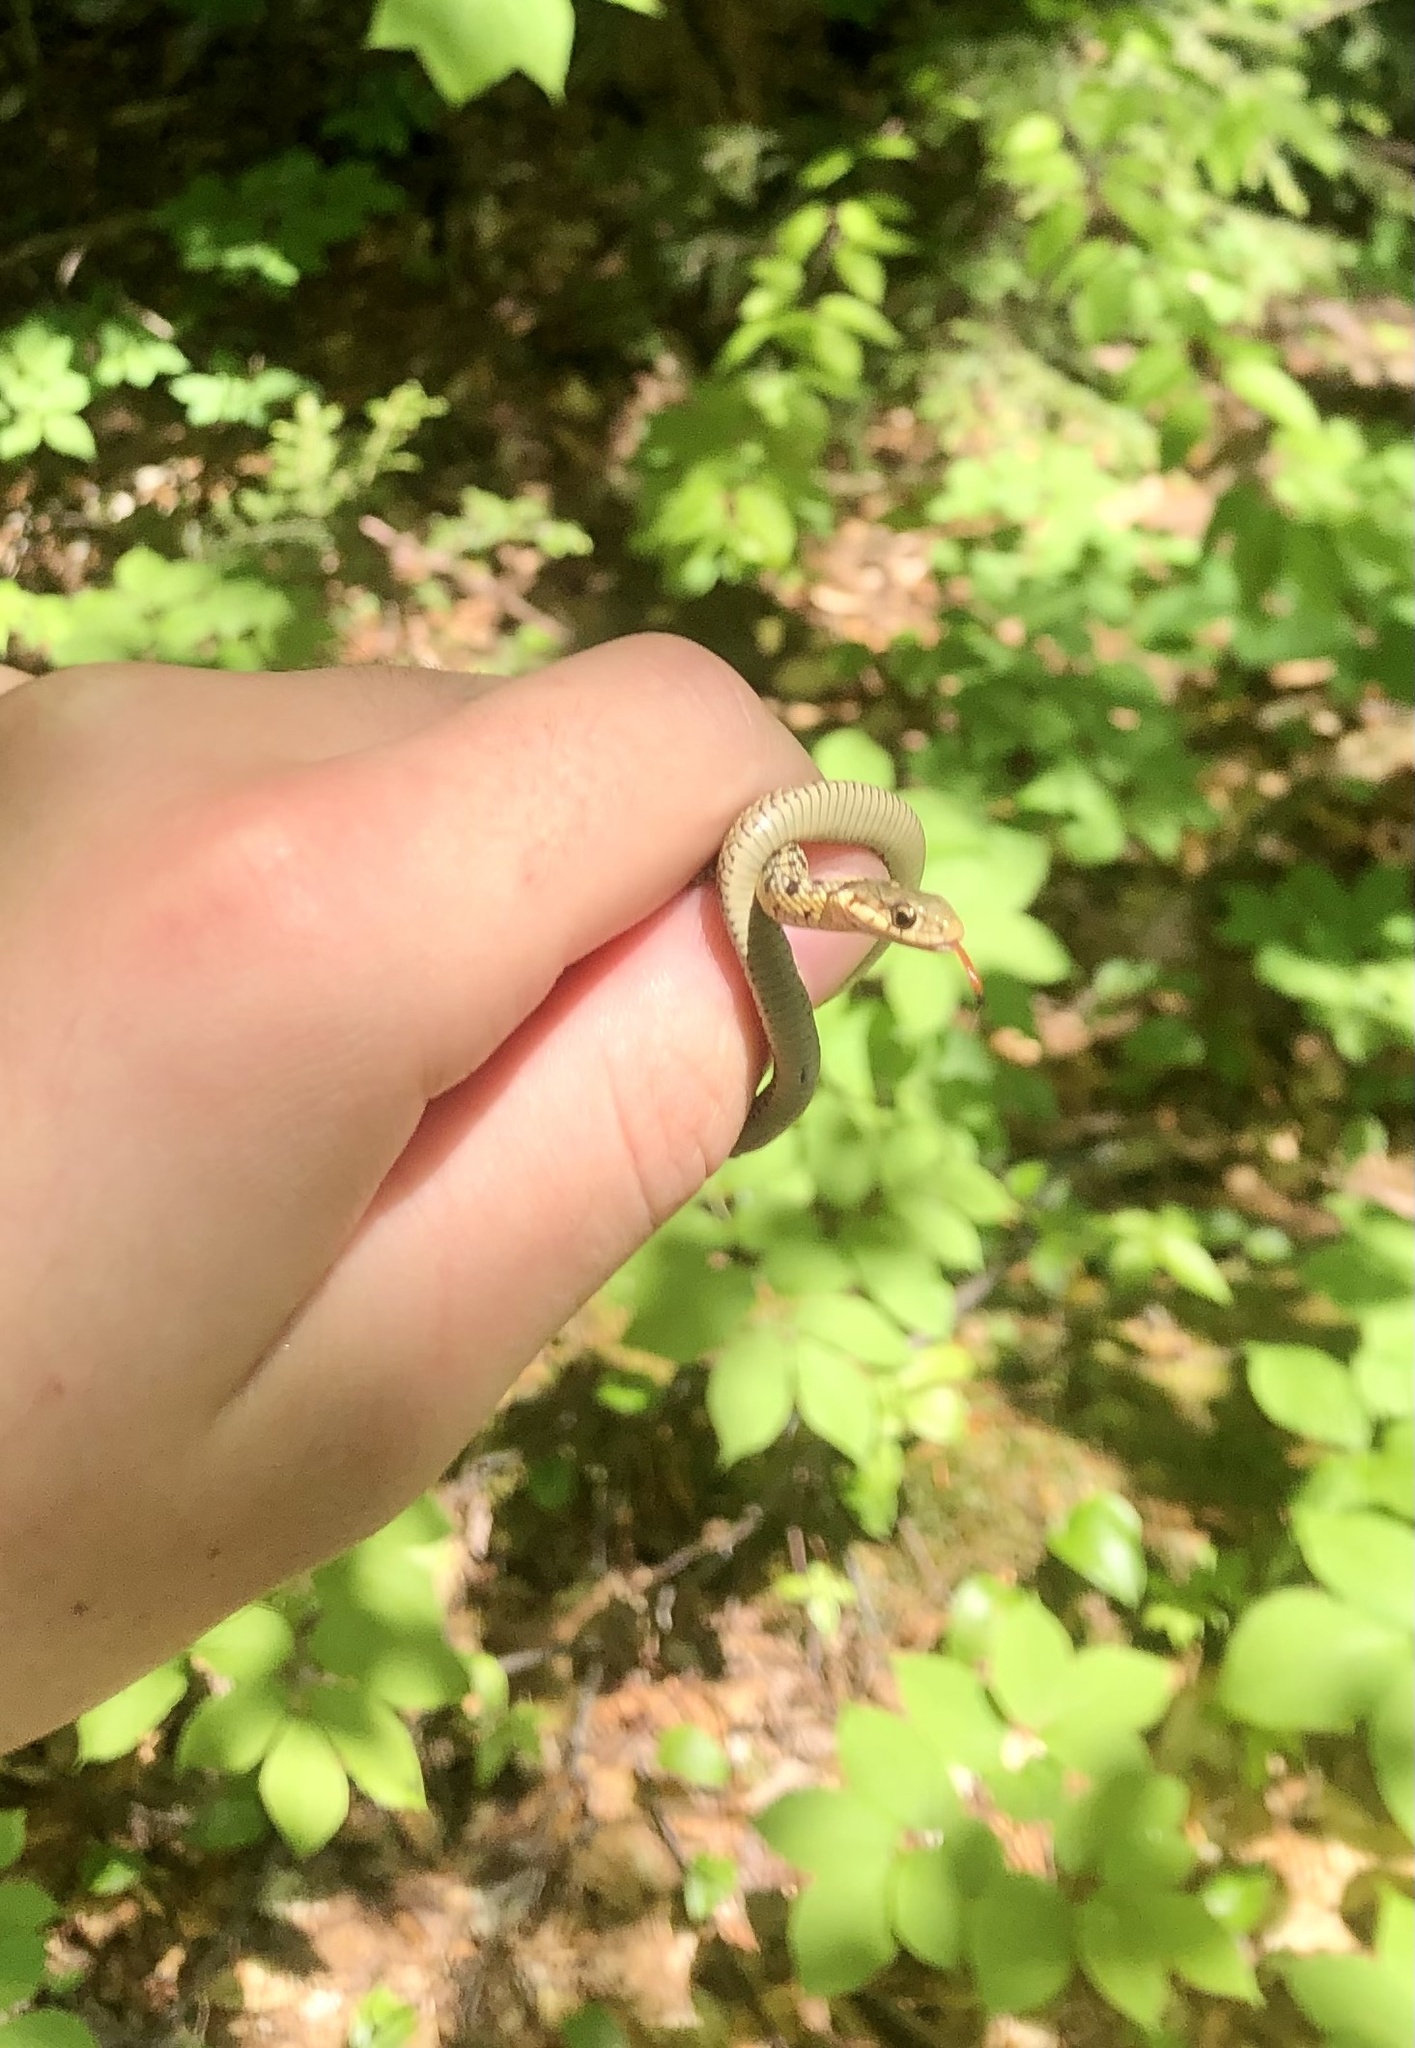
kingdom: Animalia
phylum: Chordata
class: Squamata
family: Colubridae
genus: Thamnophis
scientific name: Thamnophis sirtalis
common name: Common garter snake
